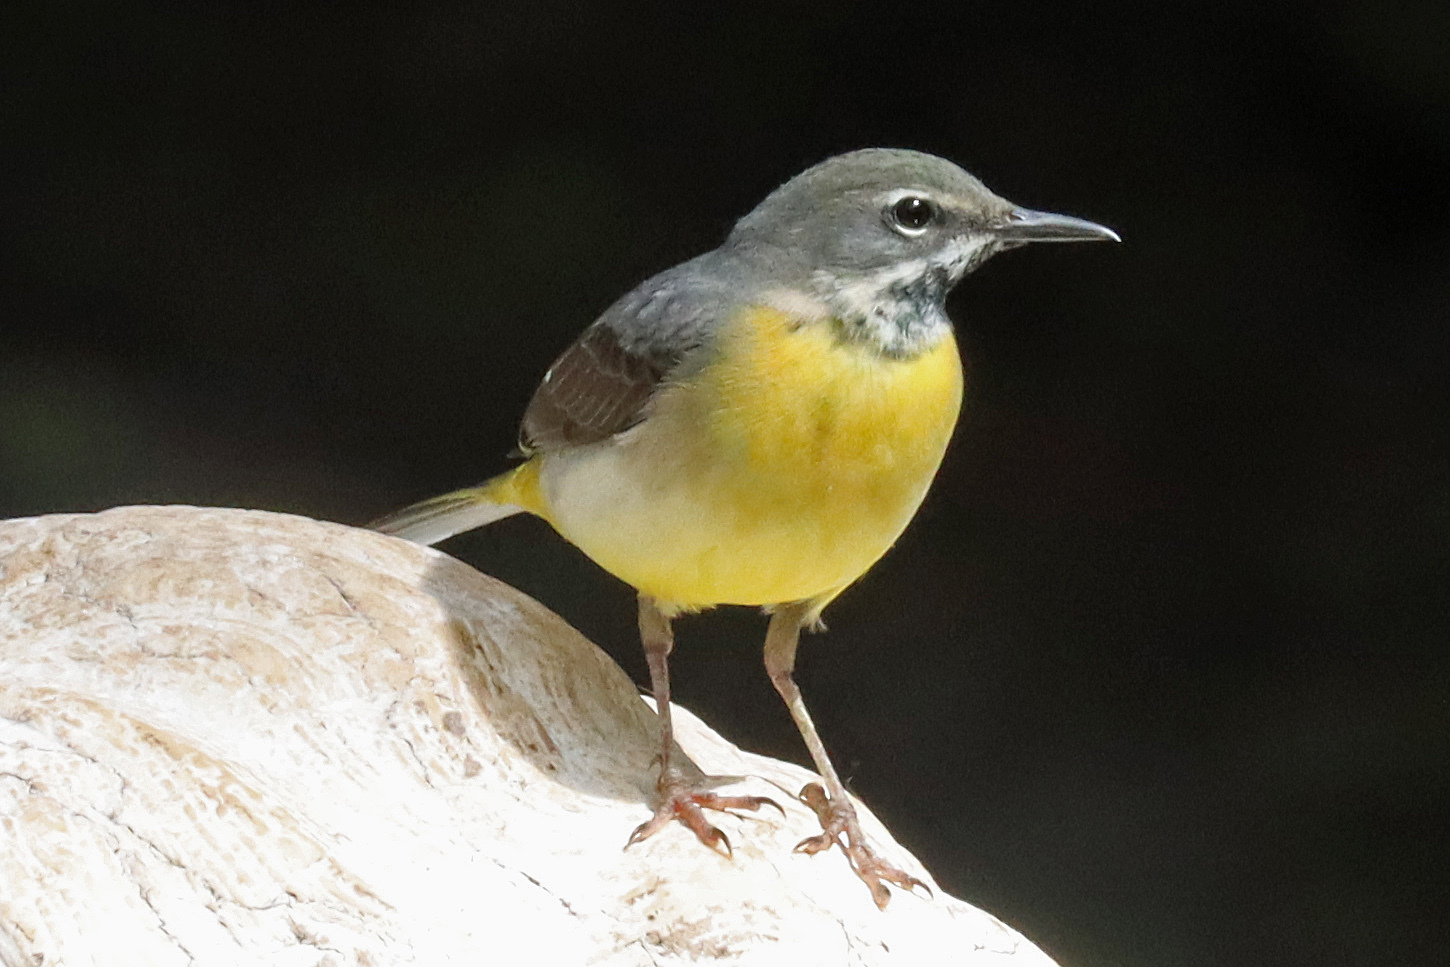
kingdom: Animalia
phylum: Chordata
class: Aves
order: Passeriformes
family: Motacillidae
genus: Motacilla
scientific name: Motacilla cinerea
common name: Grey wagtail
